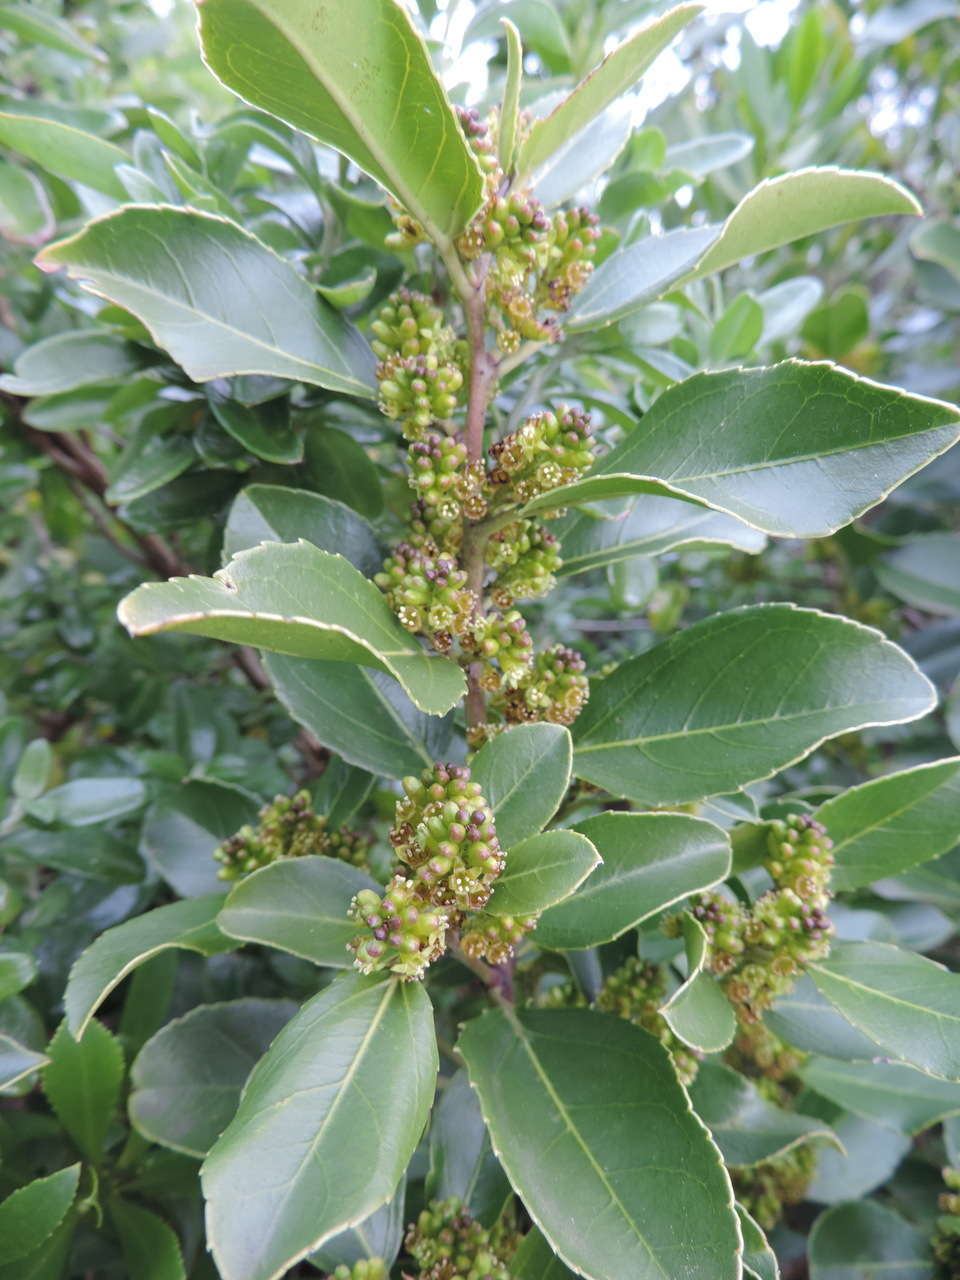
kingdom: Plantae
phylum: Tracheophyta
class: Magnoliopsida
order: Rosales
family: Rhamnaceae
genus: Rhamnus
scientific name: Rhamnus alaternus
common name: Mediterranean buckthorn
